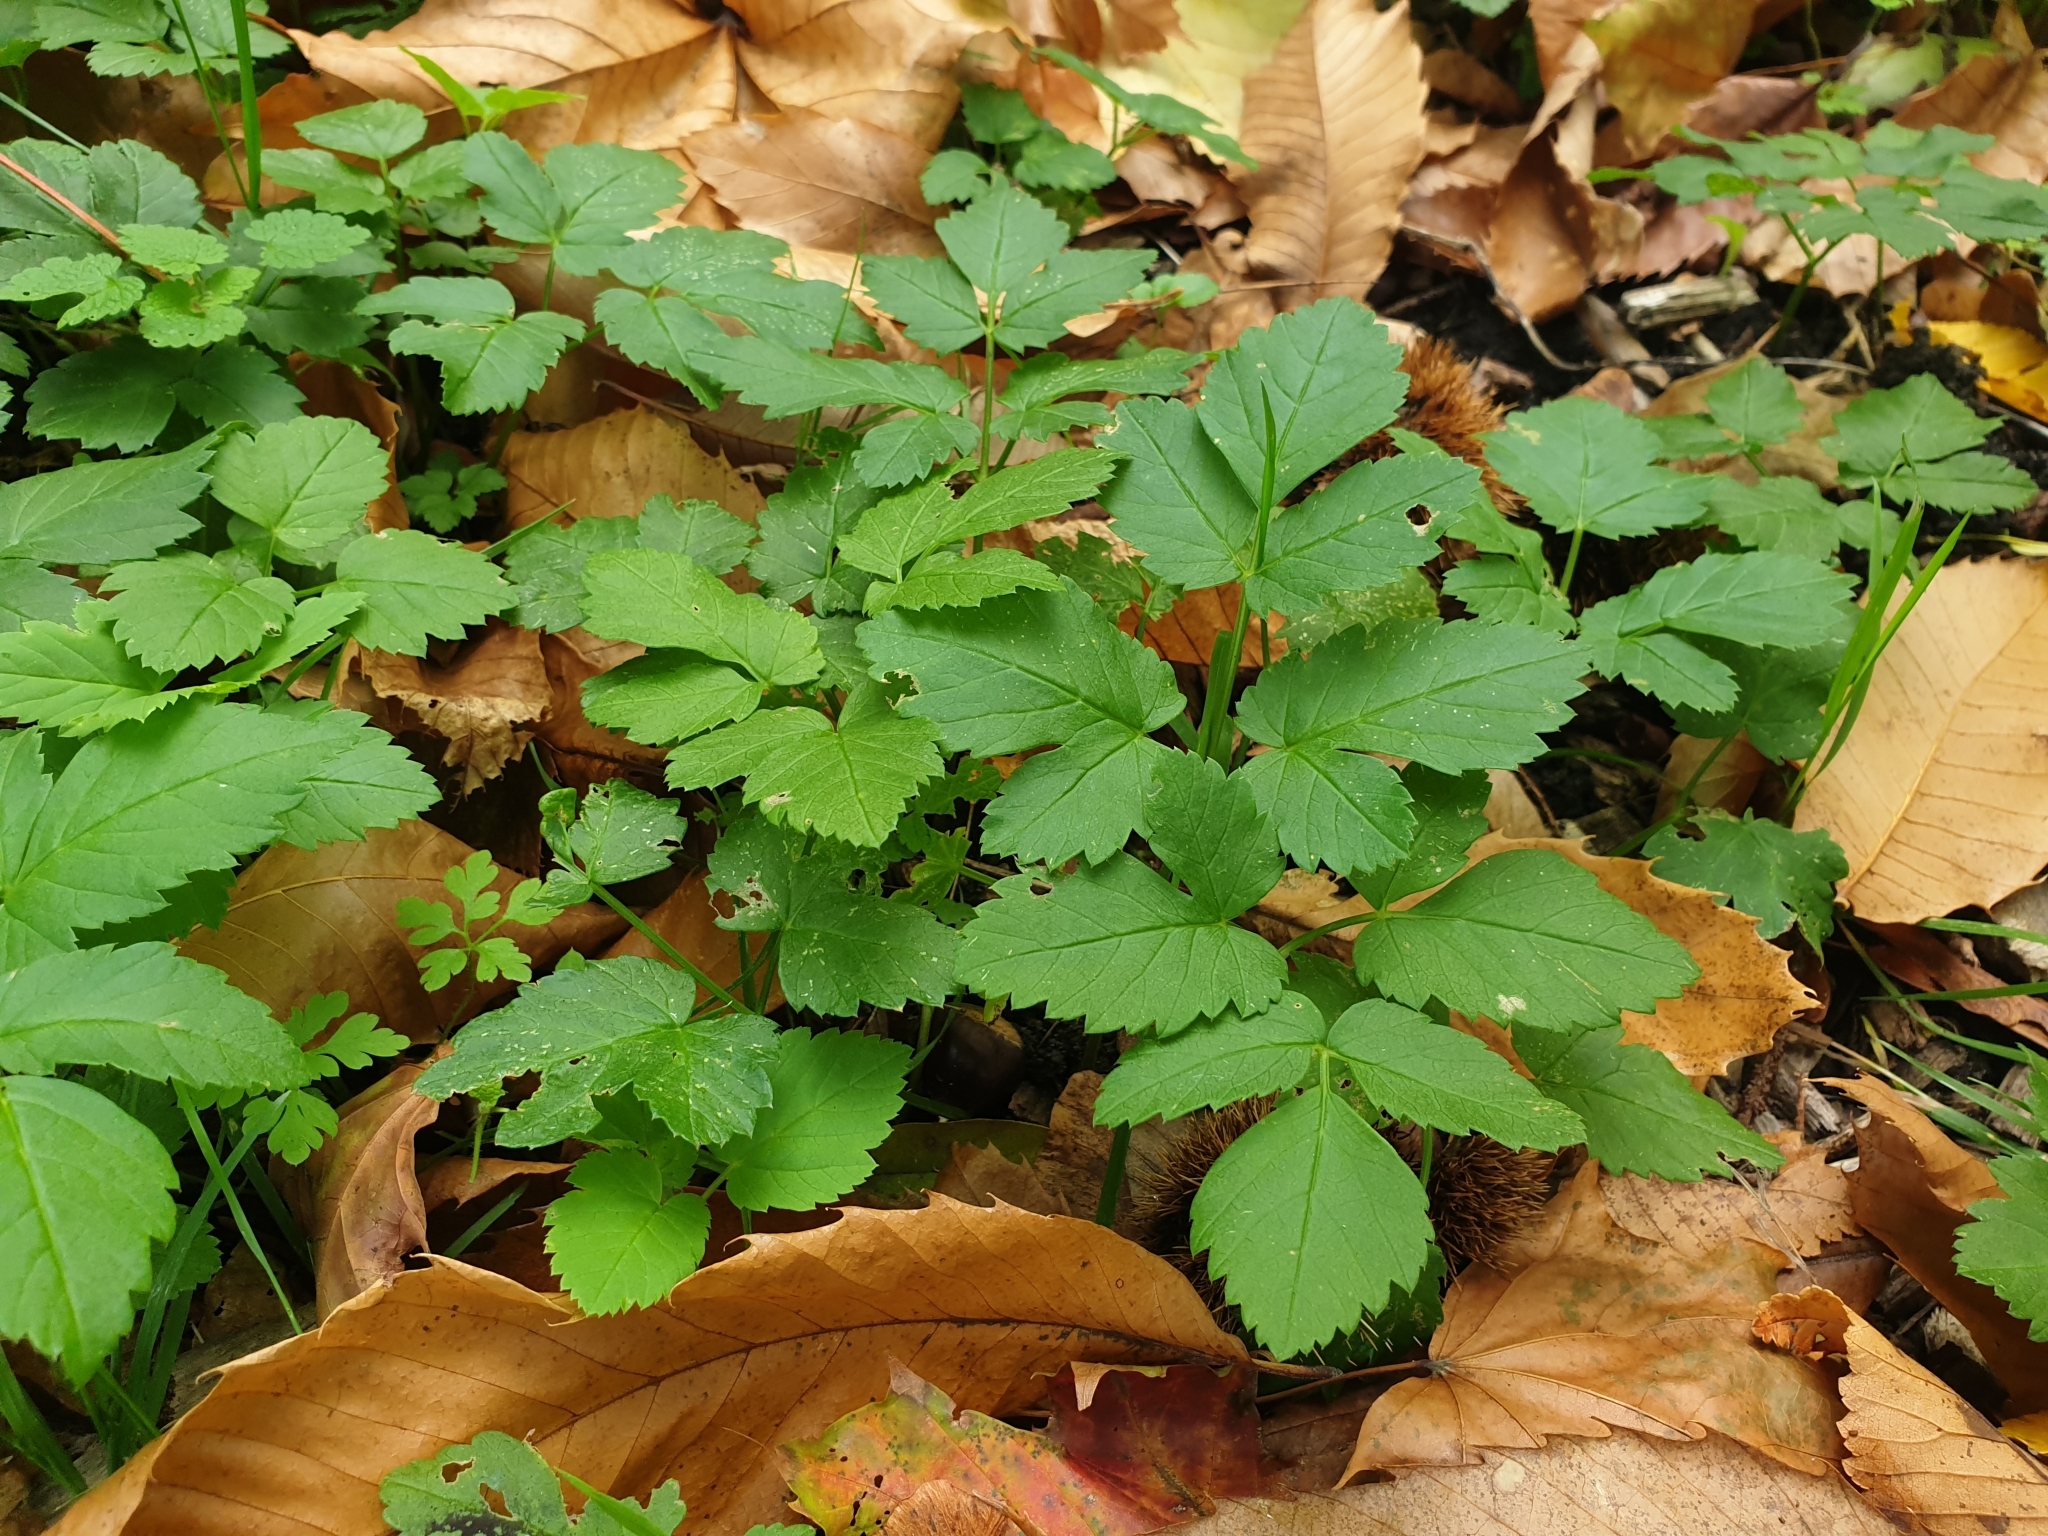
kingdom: Plantae
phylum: Tracheophyta
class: Magnoliopsida
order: Apiales
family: Apiaceae
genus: Aegopodium
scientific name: Aegopodium podagraria
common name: Ground-elder
